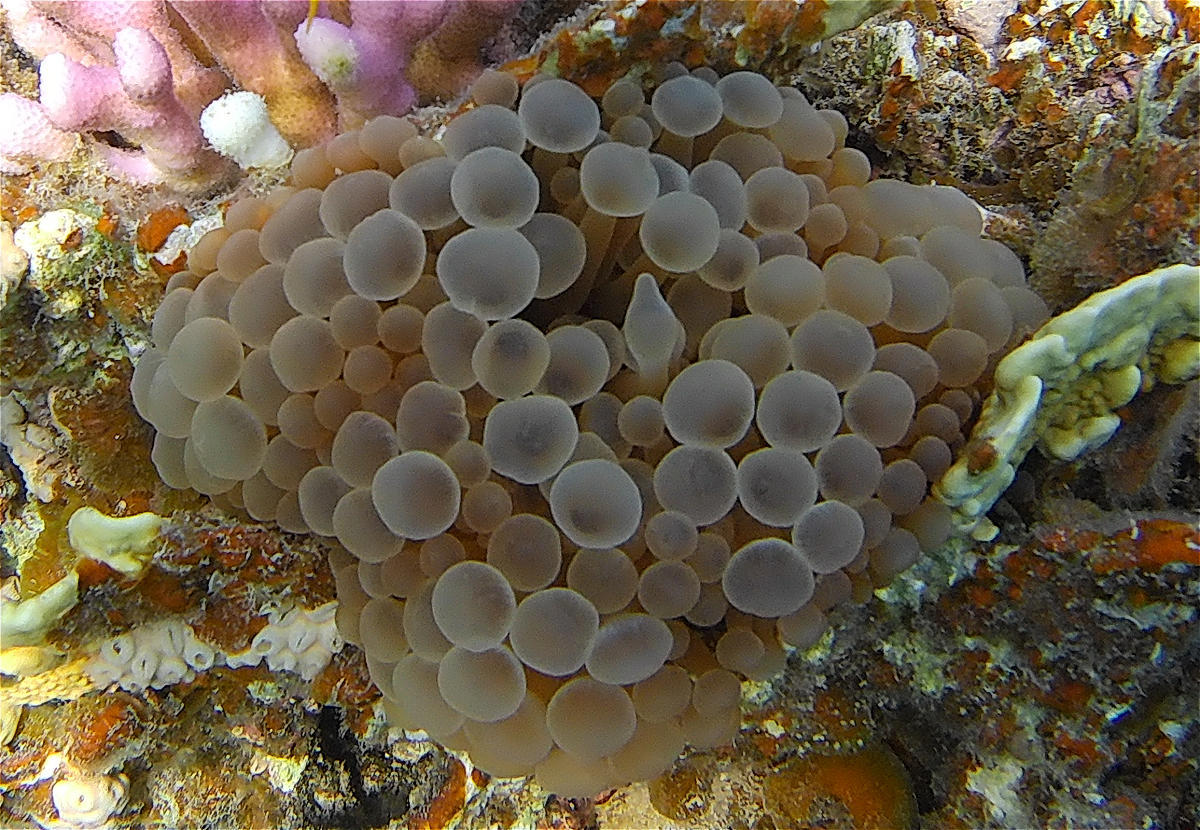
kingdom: Animalia
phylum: Cnidaria
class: Anthozoa
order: Actiniaria
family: Actiniidae
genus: Entacmaea
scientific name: Entacmaea quadricolor
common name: Bulb tentacle sea anemone
